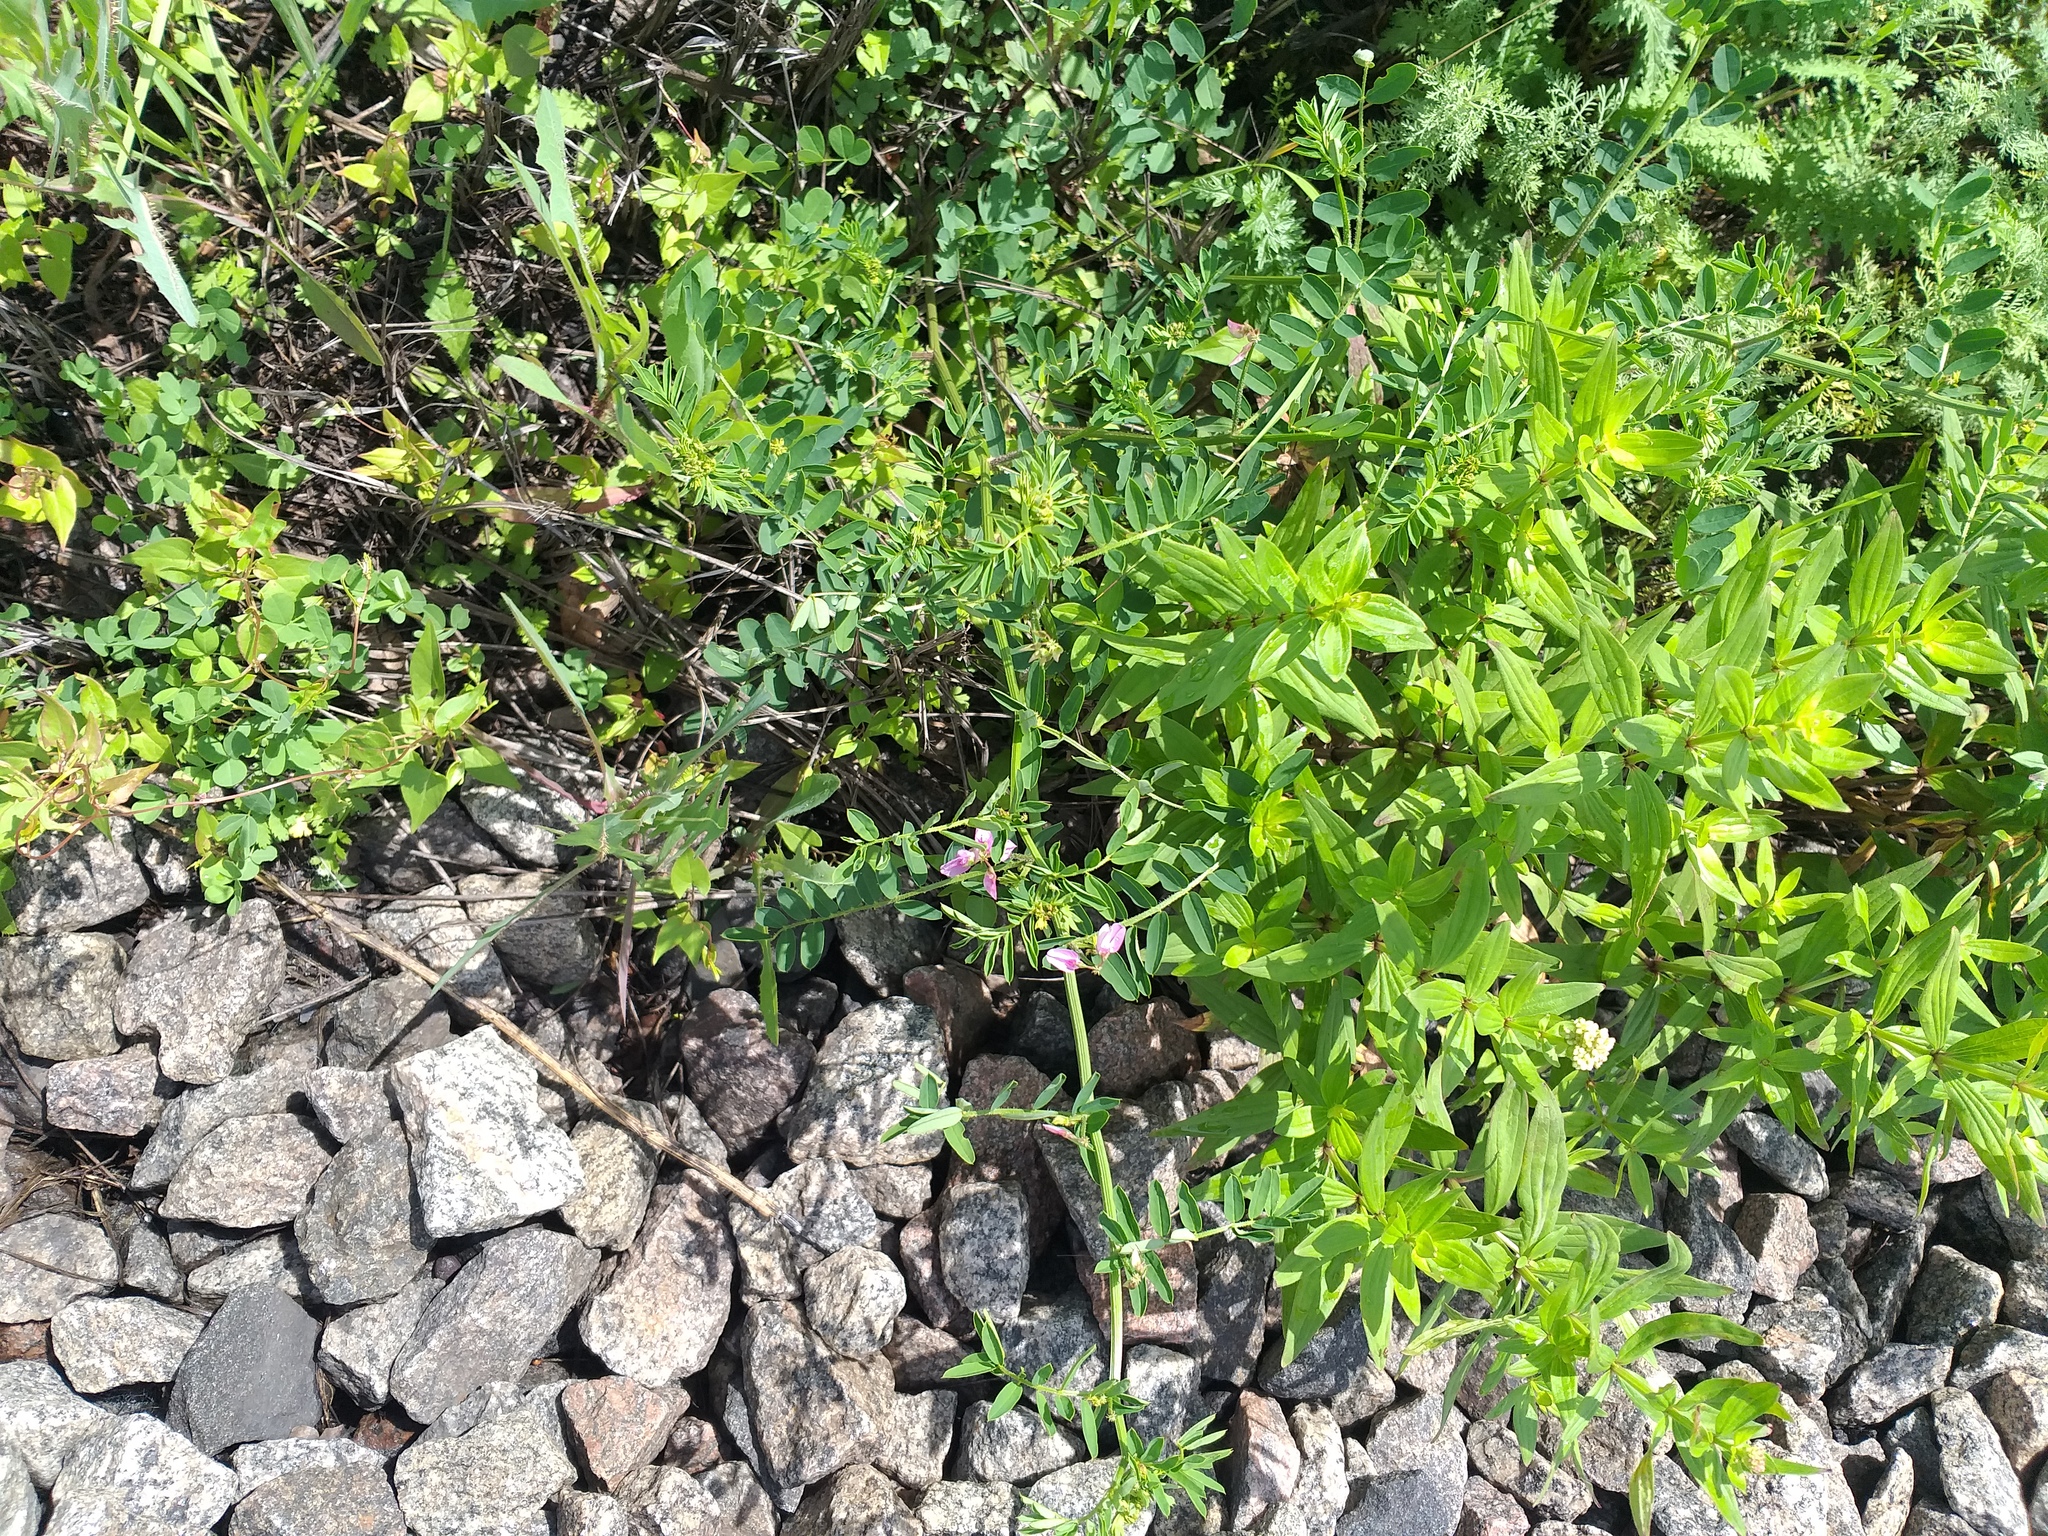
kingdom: Plantae
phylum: Tracheophyta
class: Magnoliopsida
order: Fabales
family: Fabaceae
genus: Coronilla
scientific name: Coronilla varia
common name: Crownvetch
